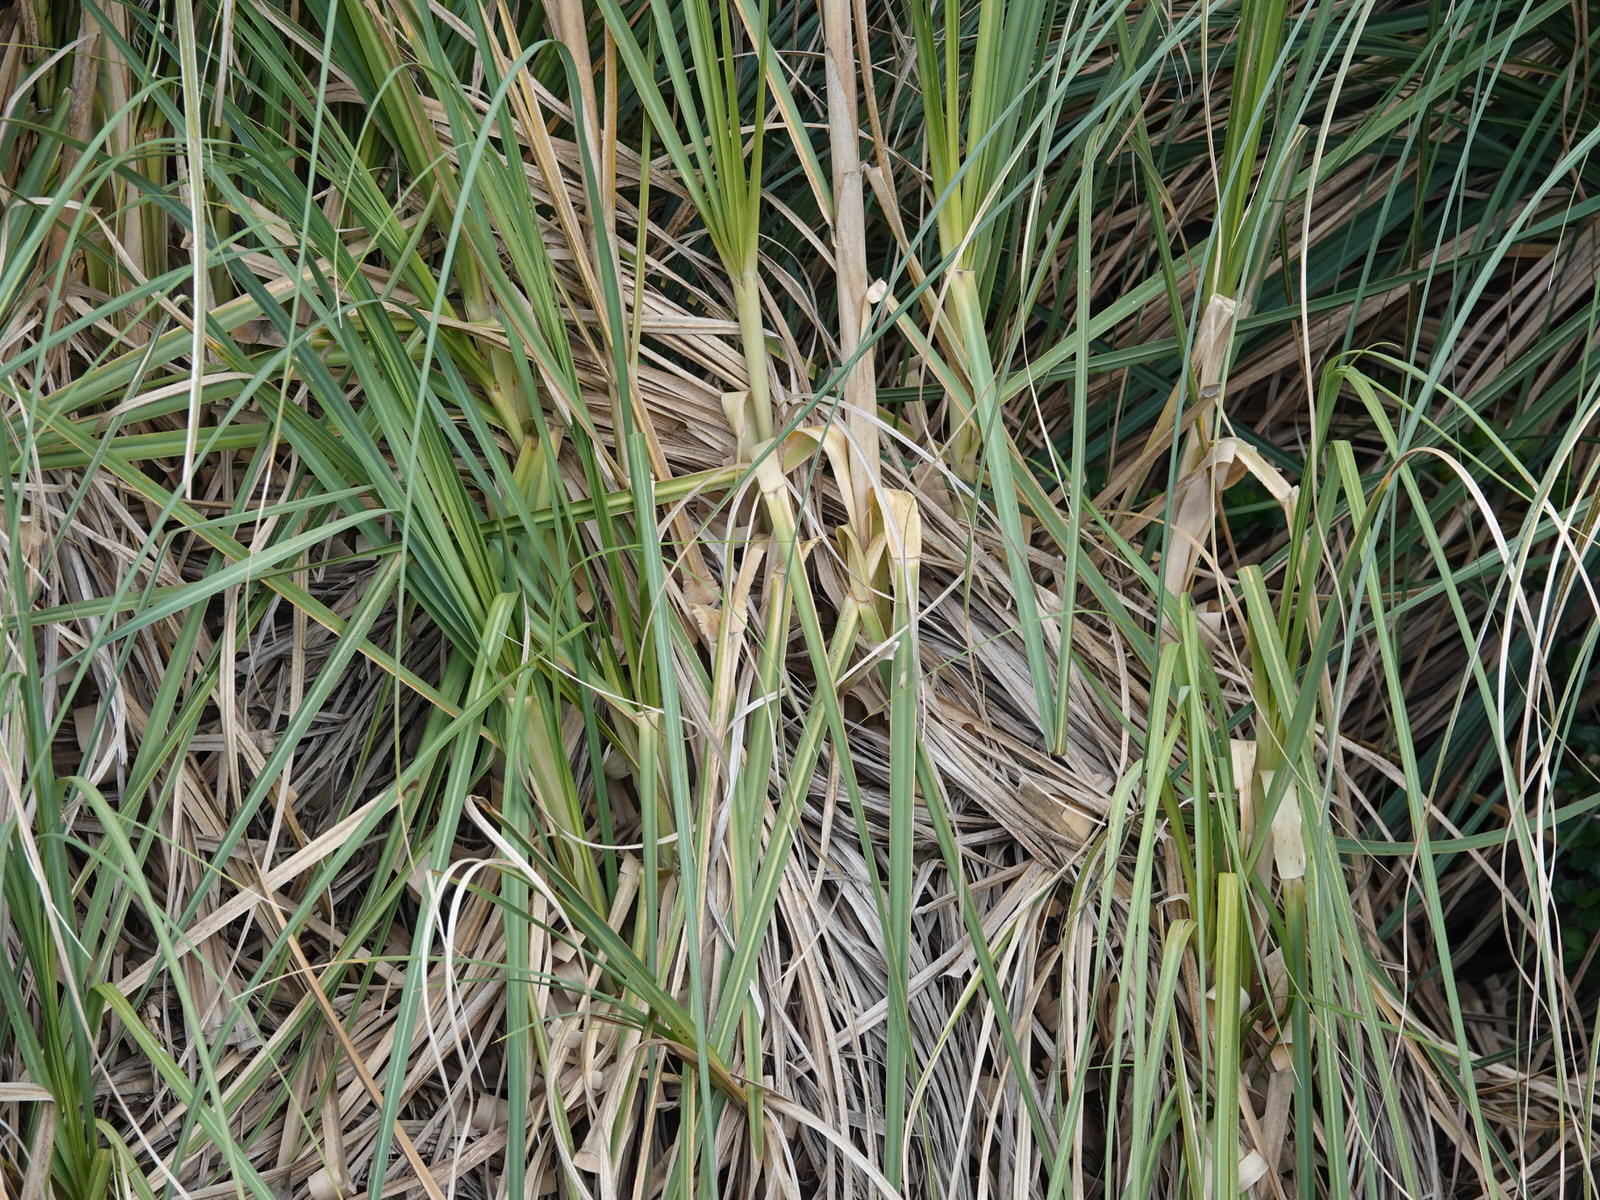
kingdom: Plantae
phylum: Tracheophyta
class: Liliopsida
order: Poales
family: Poaceae
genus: Cortaderia
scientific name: Cortaderia selloana
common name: Uruguayan pampas grass
